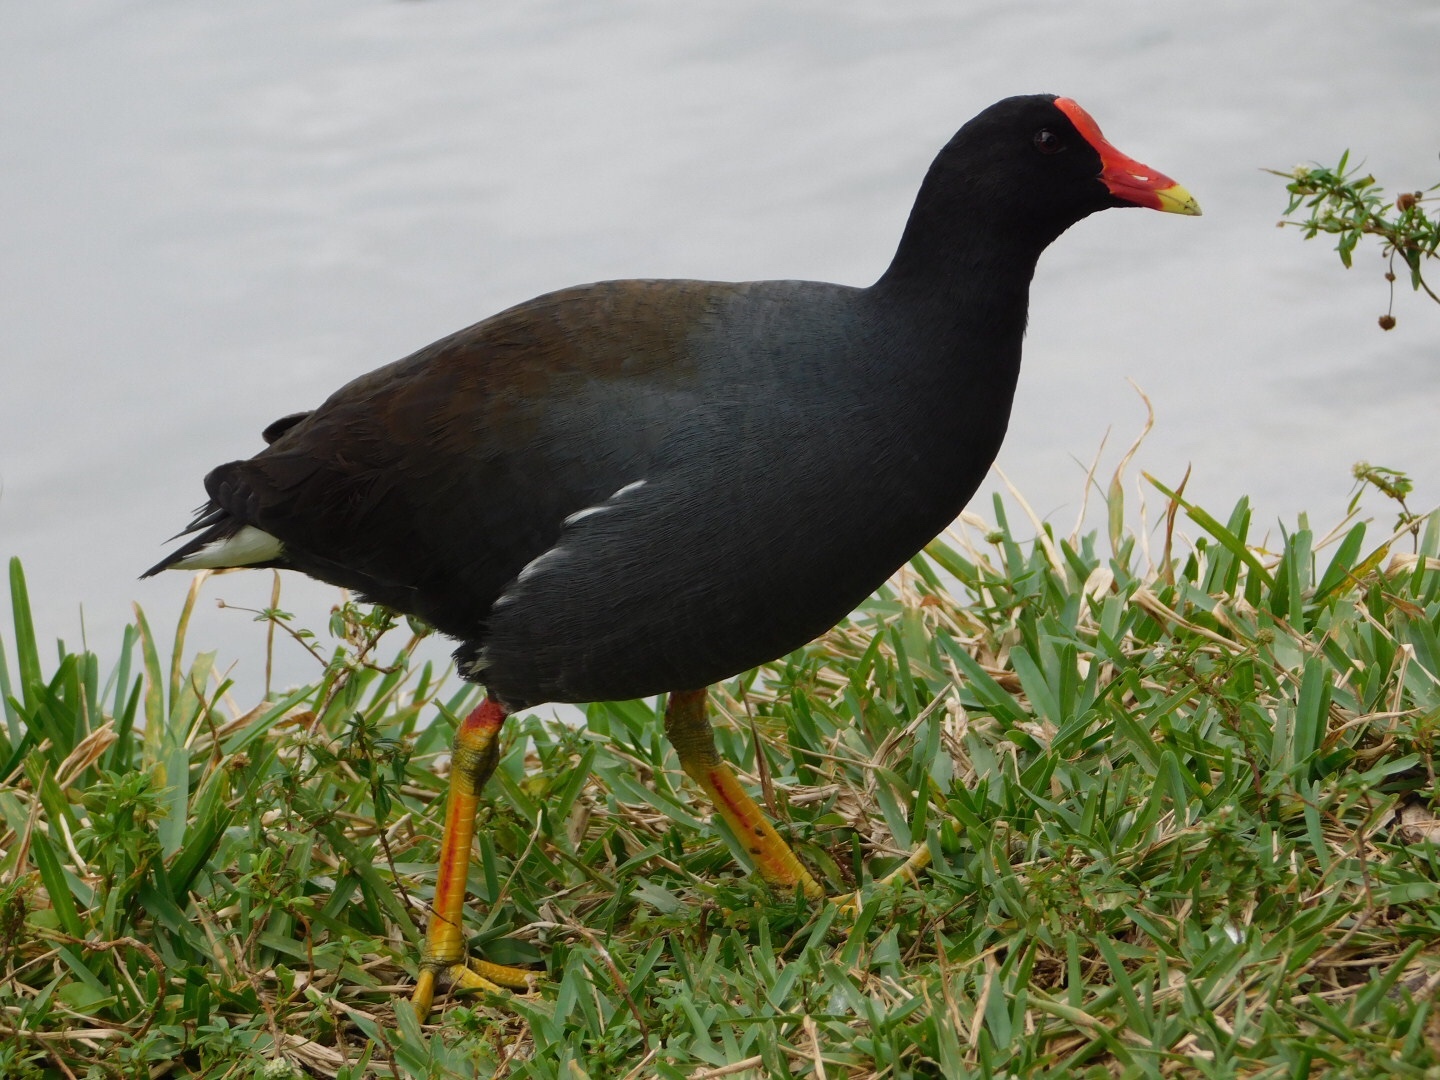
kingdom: Animalia
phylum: Chordata
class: Aves
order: Gruiformes
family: Rallidae
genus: Gallinula
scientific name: Gallinula chloropus
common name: Common moorhen
